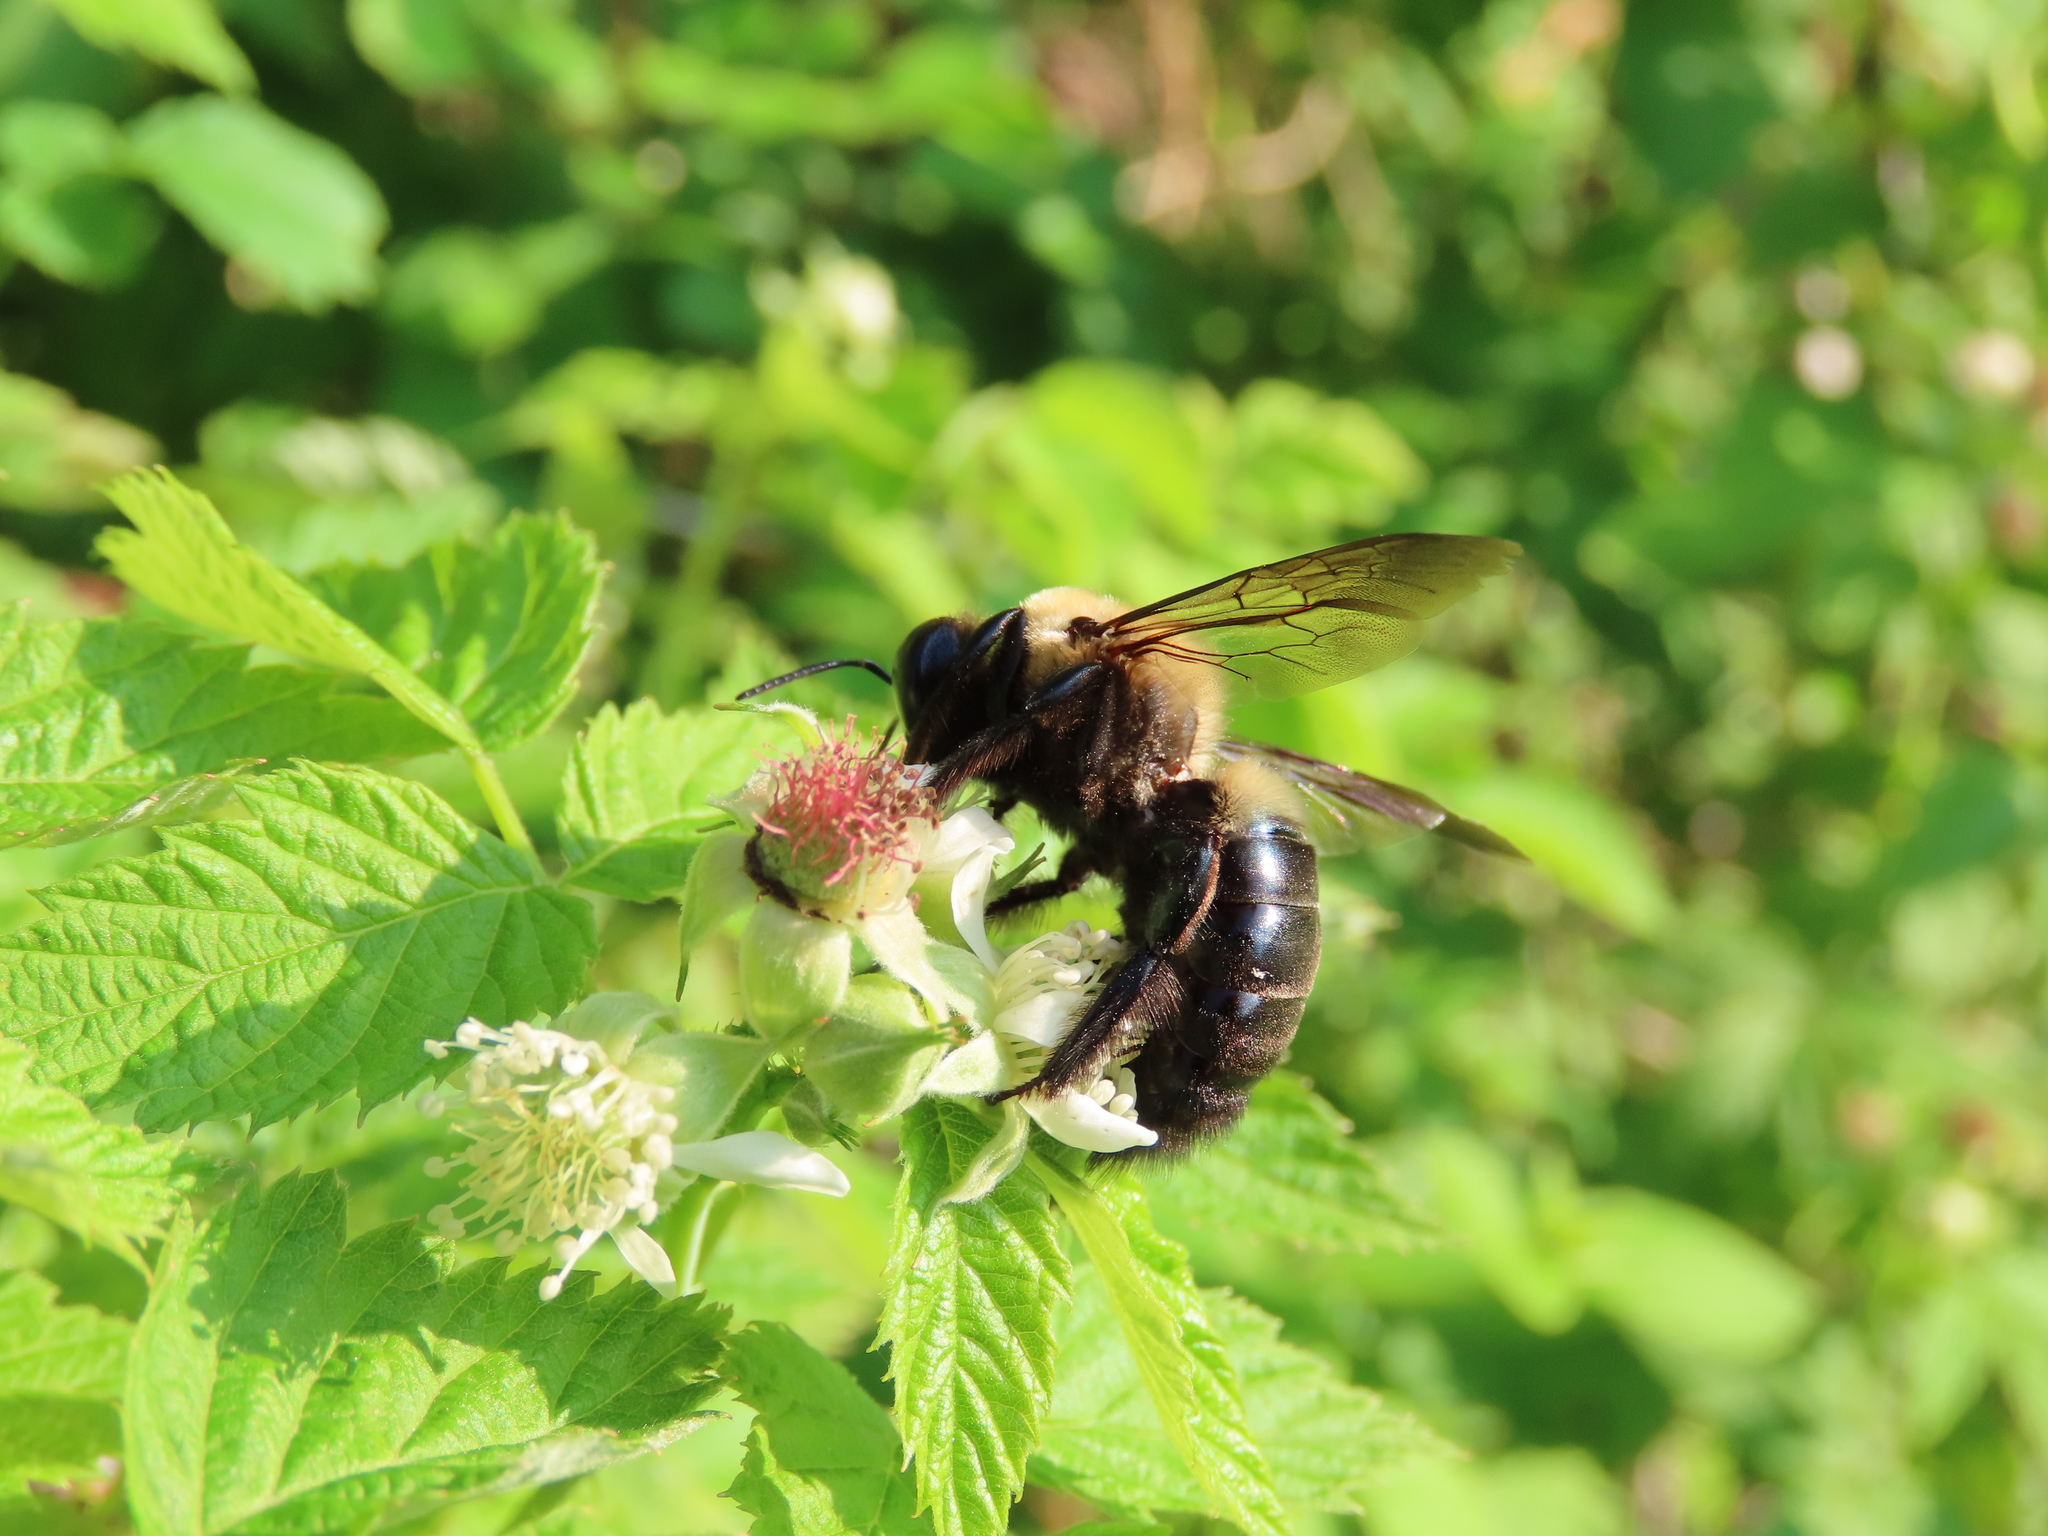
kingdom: Animalia
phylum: Arthropoda
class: Insecta
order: Hymenoptera
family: Apidae
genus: Xylocopa
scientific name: Xylocopa virginica
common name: Carpenter bee
